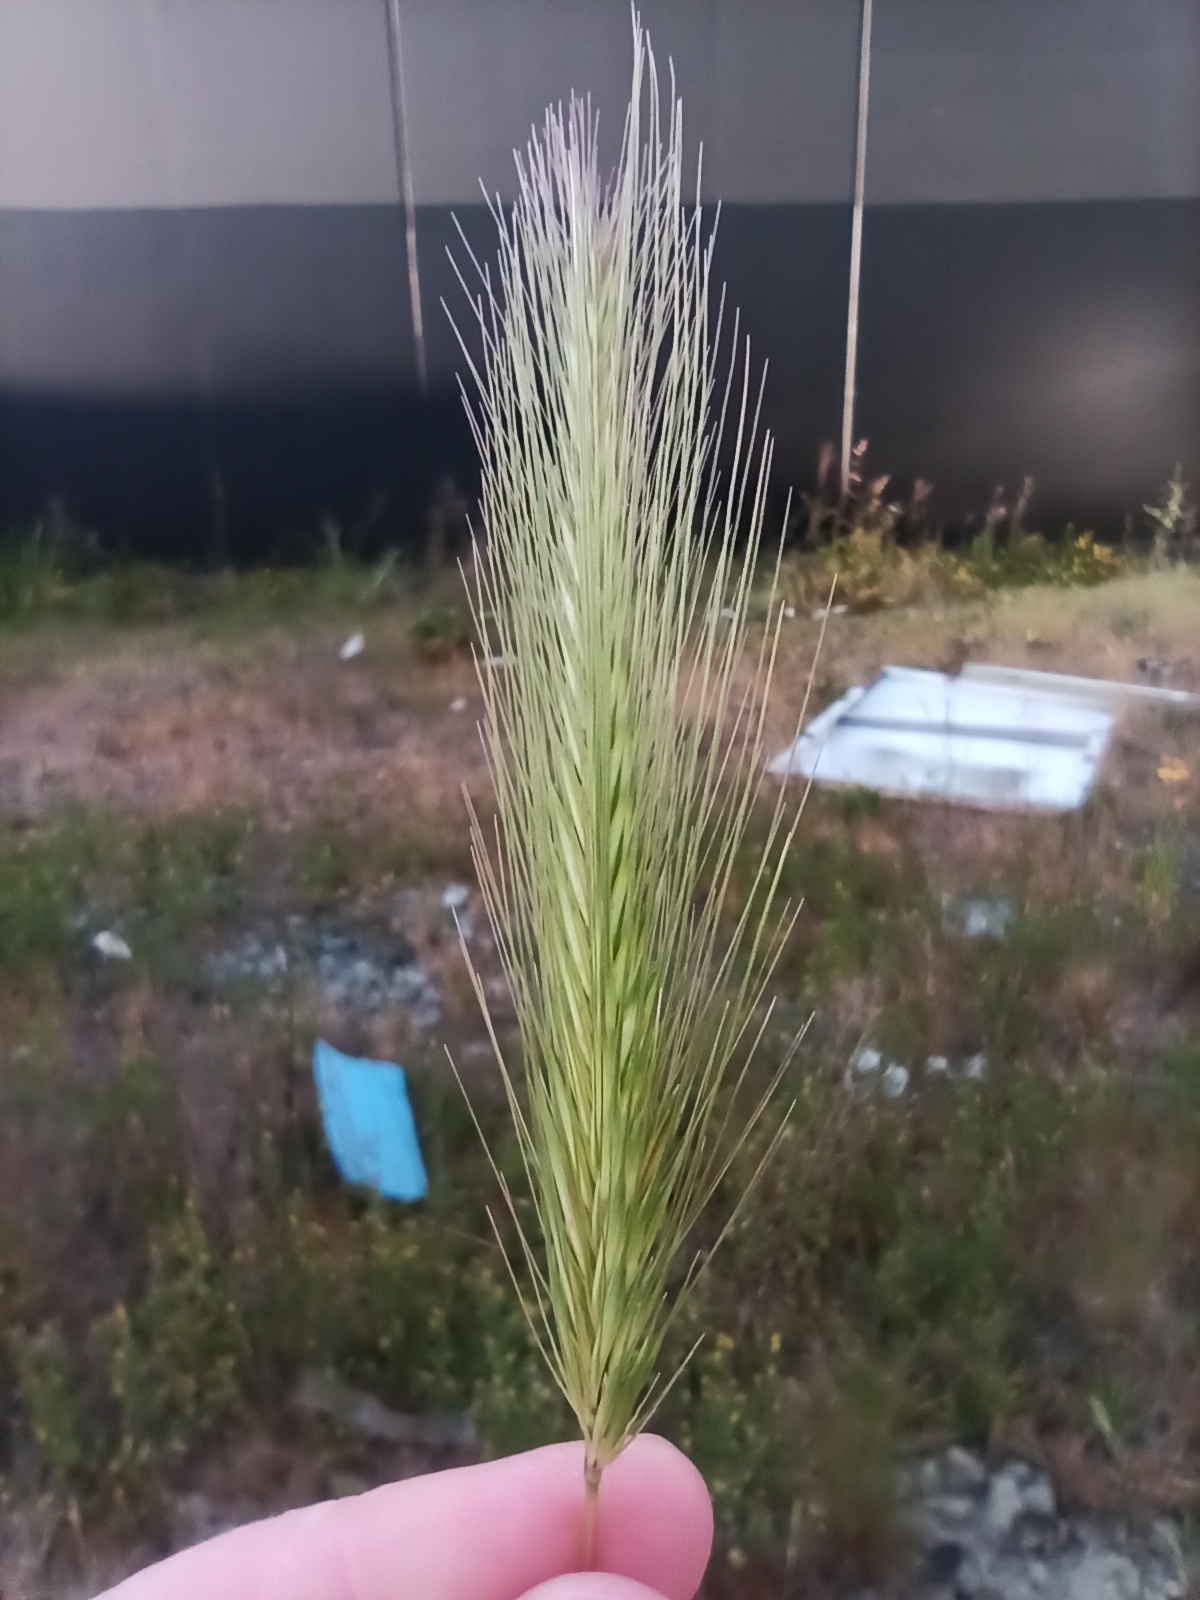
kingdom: Plantae
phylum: Tracheophyta
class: Liliopsida
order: Poales
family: Poaceae
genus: Hordeum
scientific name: Hordeum murinum
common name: Wall barley
